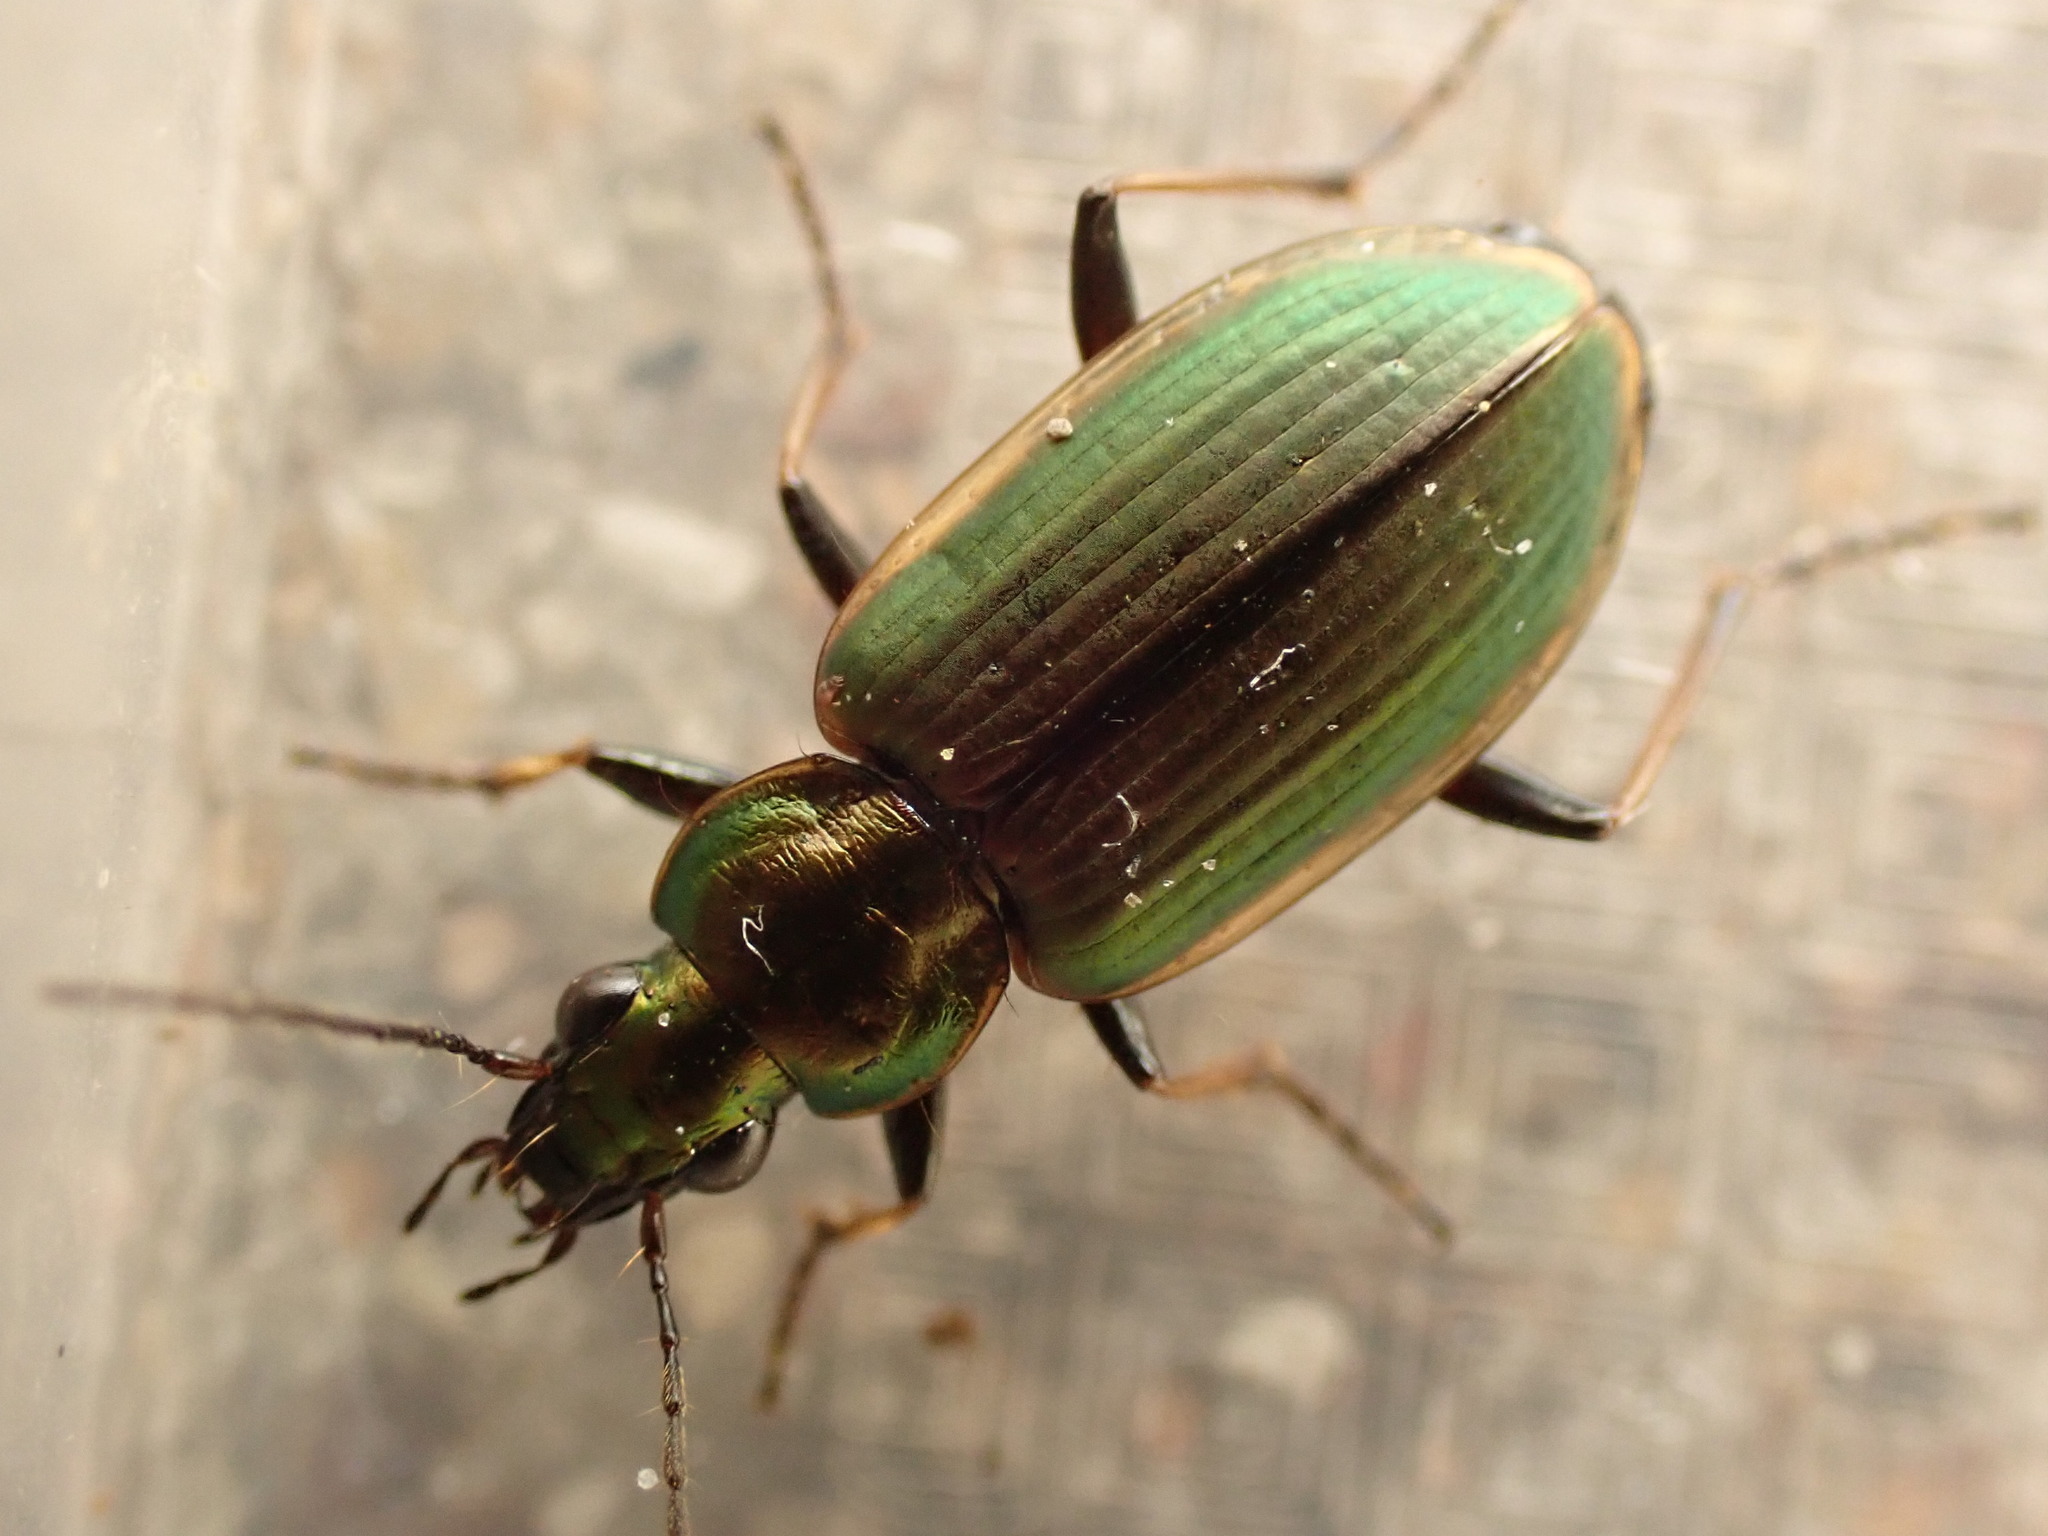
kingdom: Animalia
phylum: Arthropoda
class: Insecta
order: Coleoptera
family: Carabidae
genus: Agonum
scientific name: Agonum marginatum
